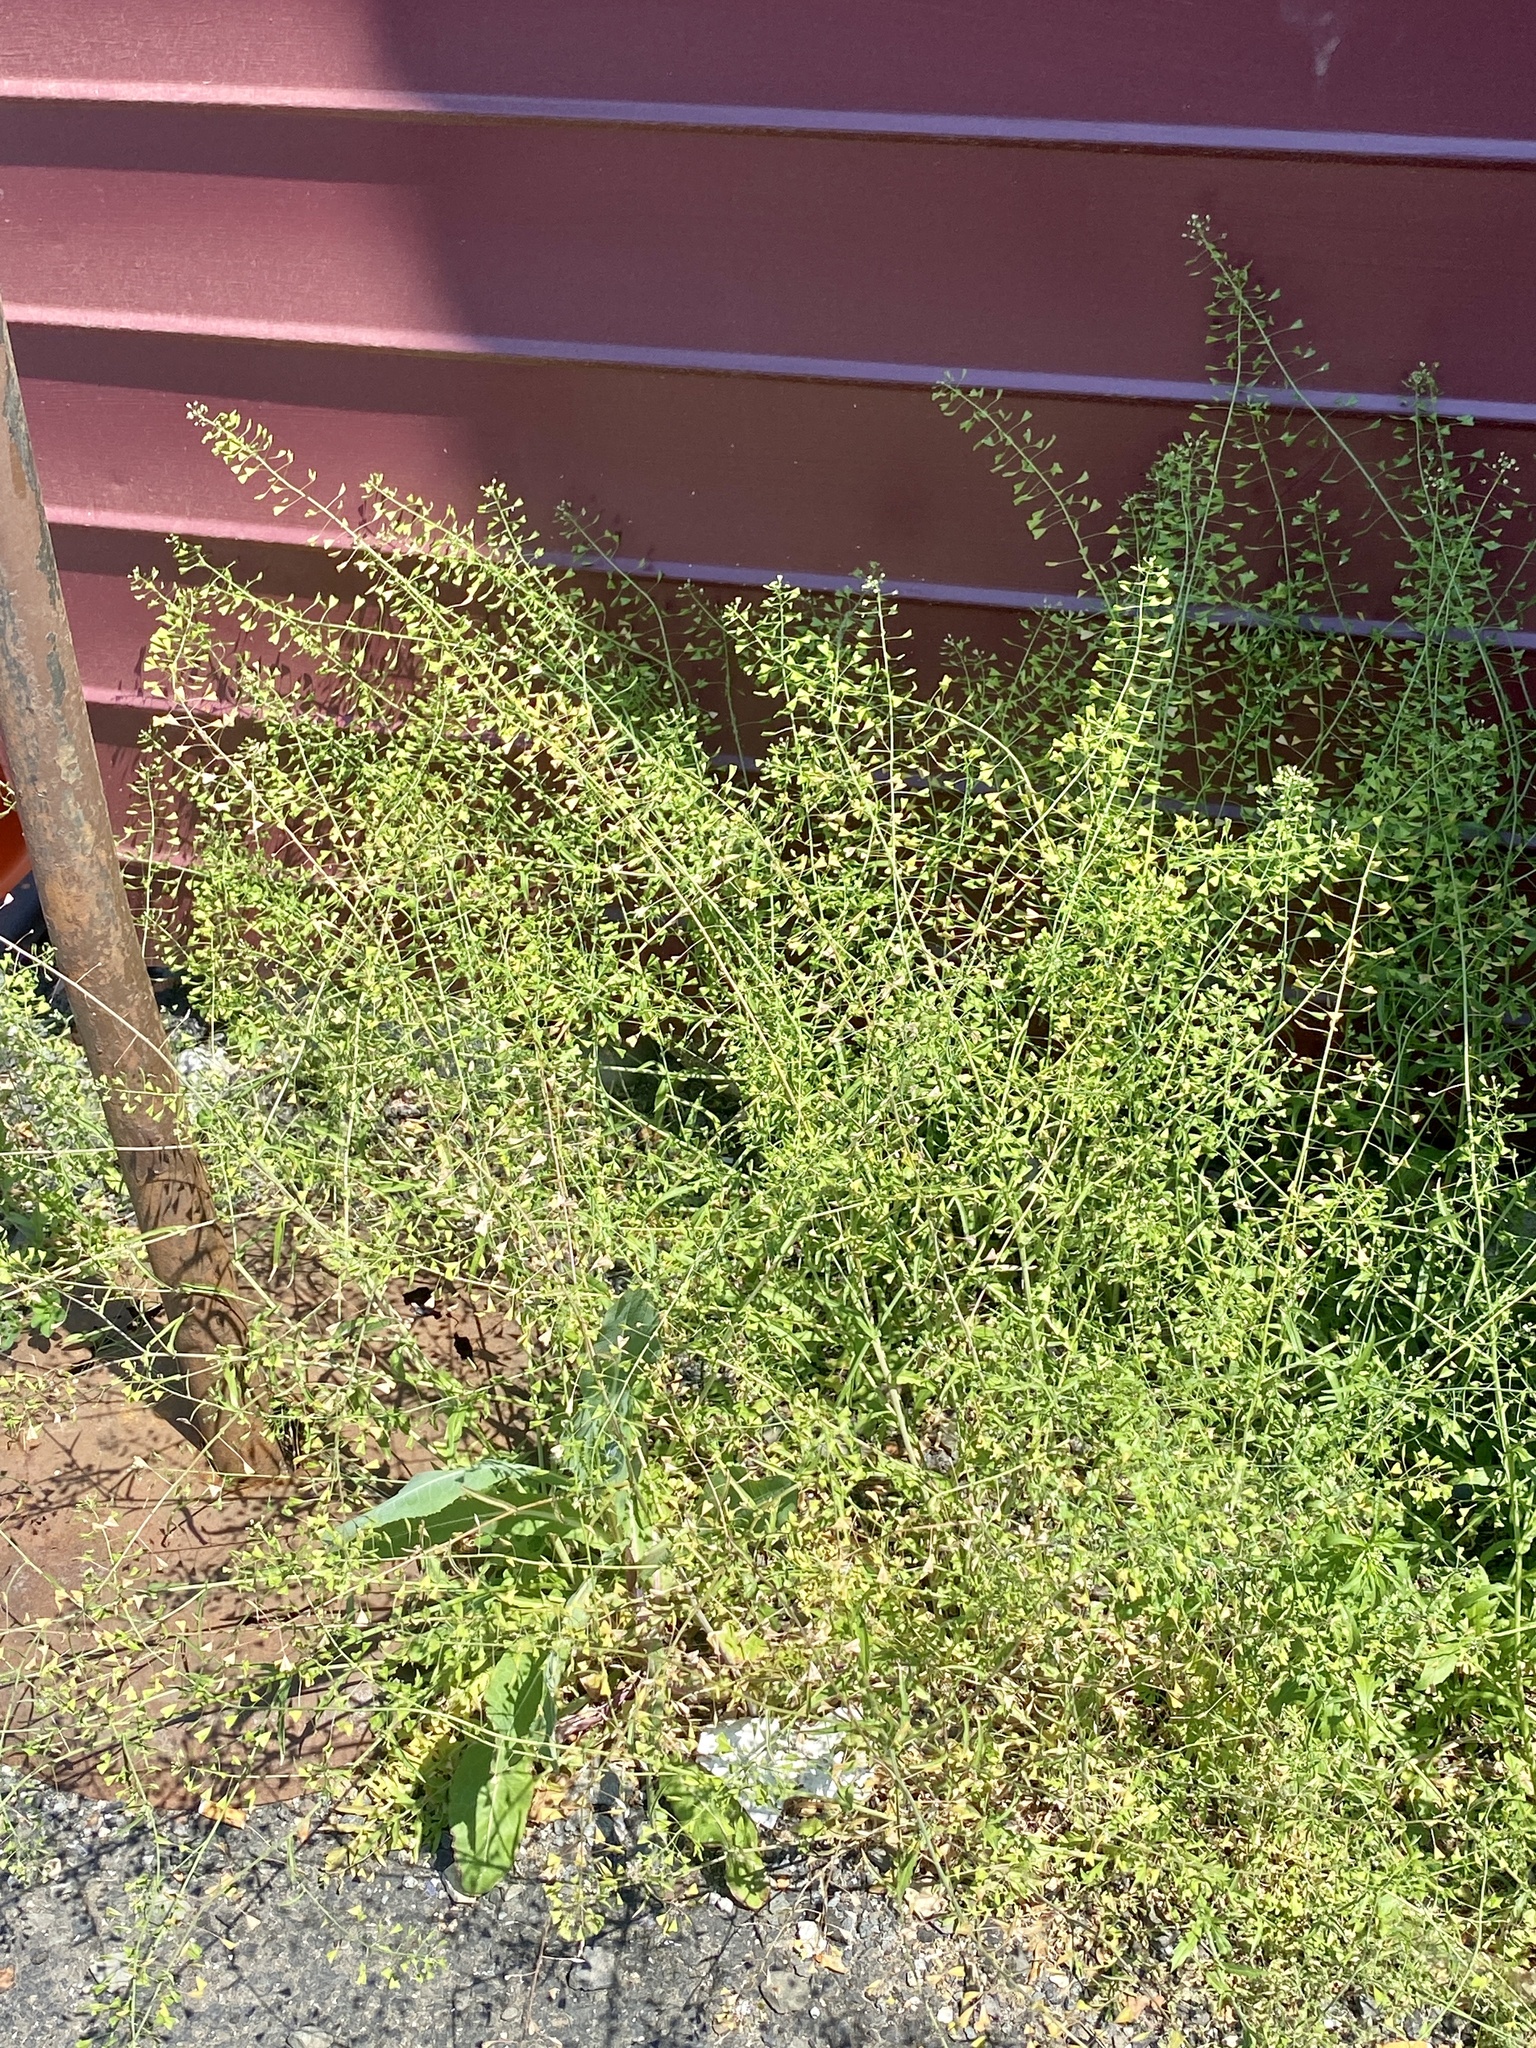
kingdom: Plantae
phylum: Tracheophyta
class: Magnoliopsida
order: Brassicales
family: Brassicaceae
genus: Capsella
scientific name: Capsella bursa-pastoris
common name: Shepherd's purse
